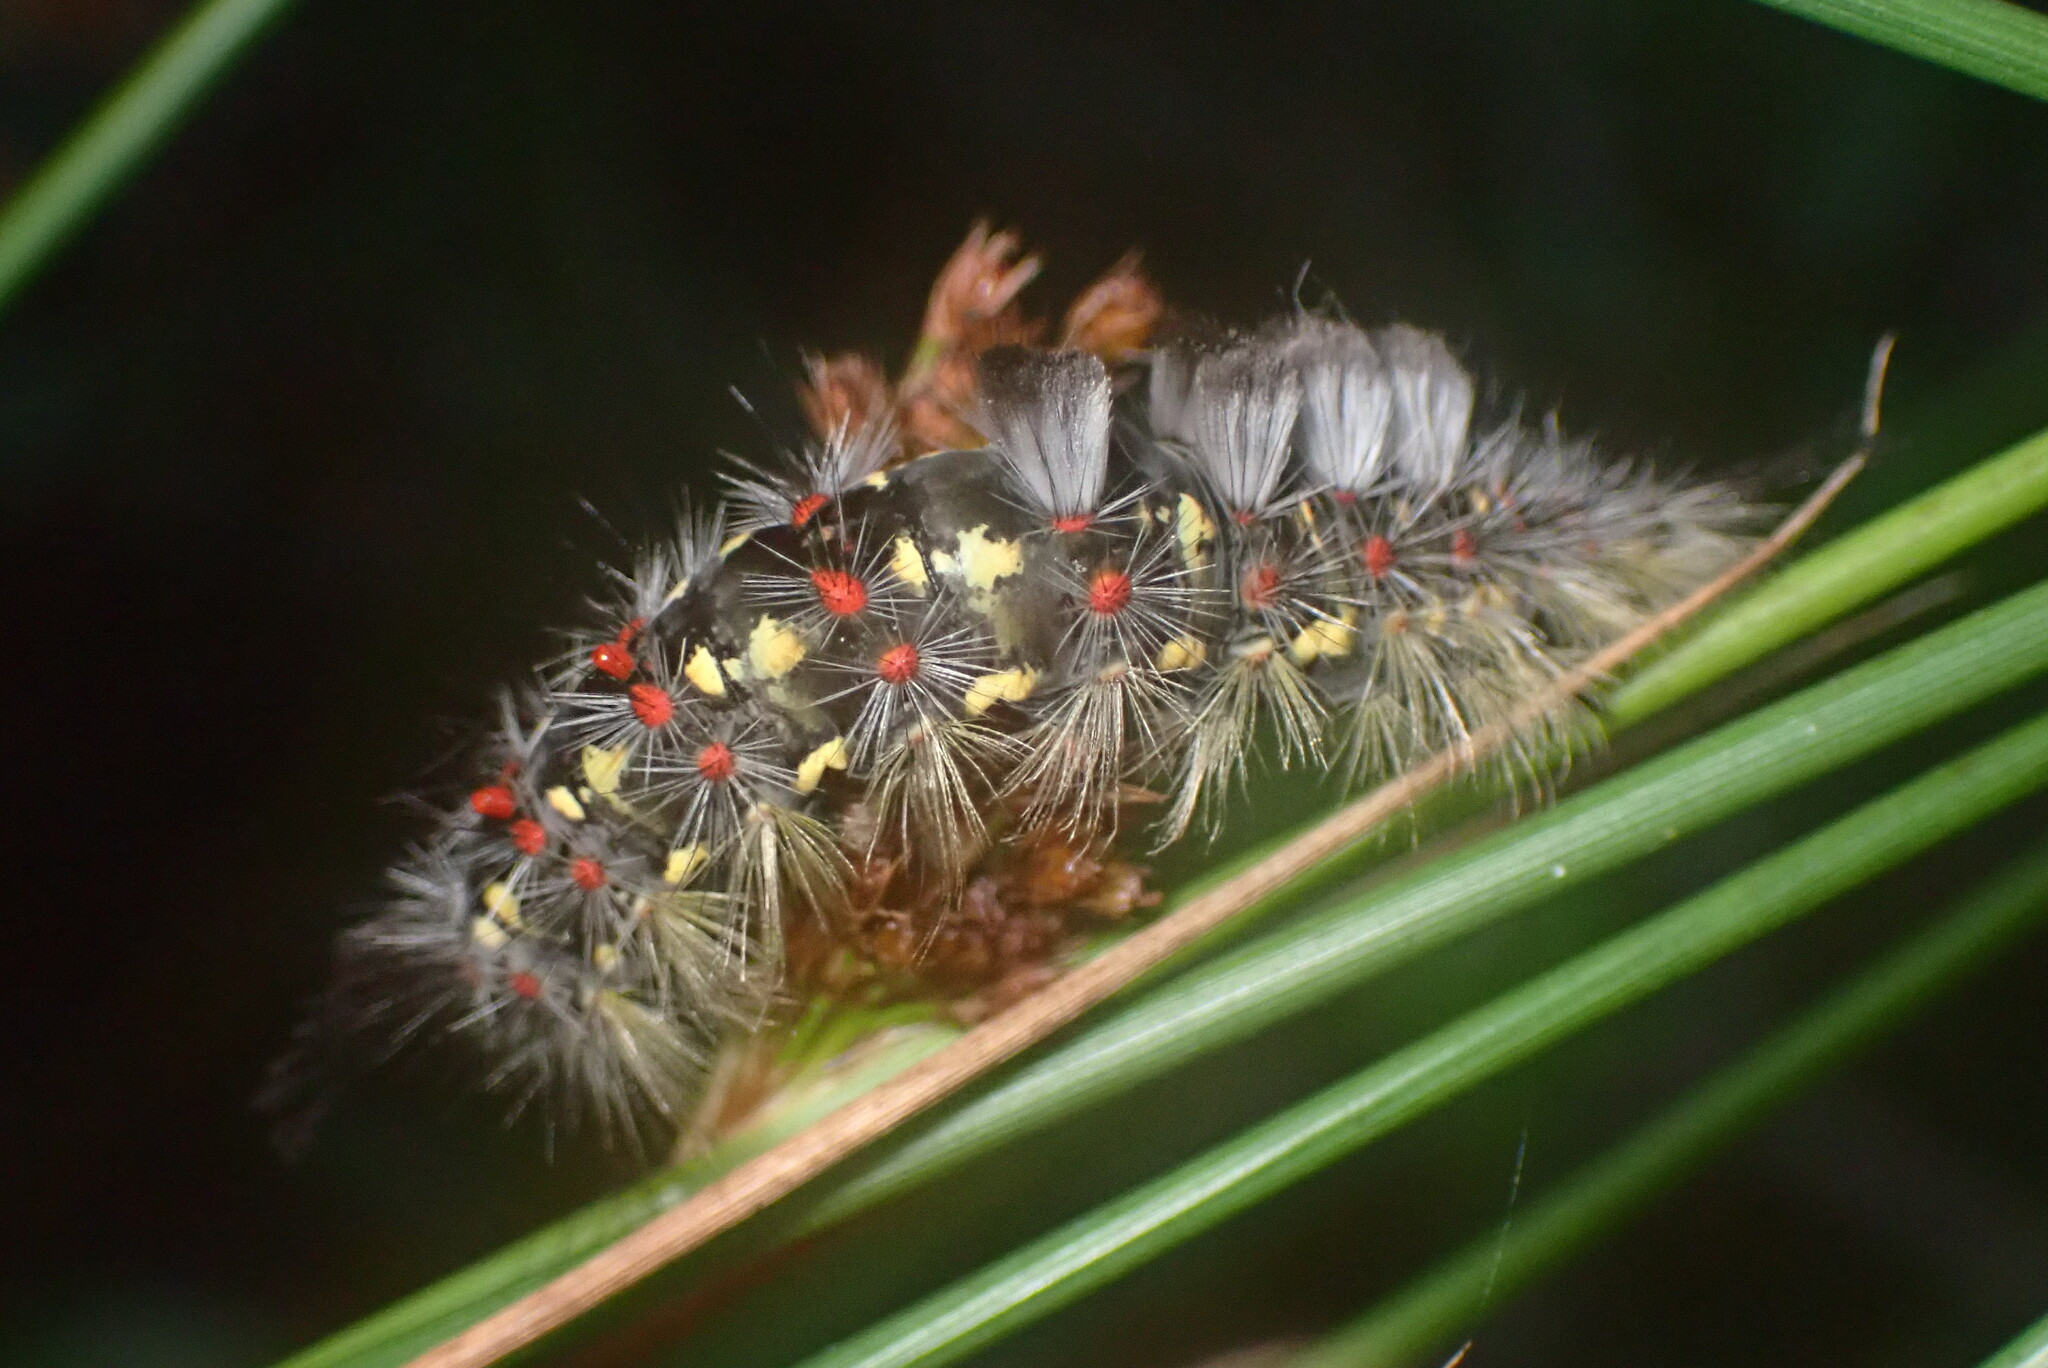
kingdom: Animalia
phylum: Arthropoda
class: Insecta
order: Lepidoptera
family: Erebidae
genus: Orgyia
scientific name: Orgyia
